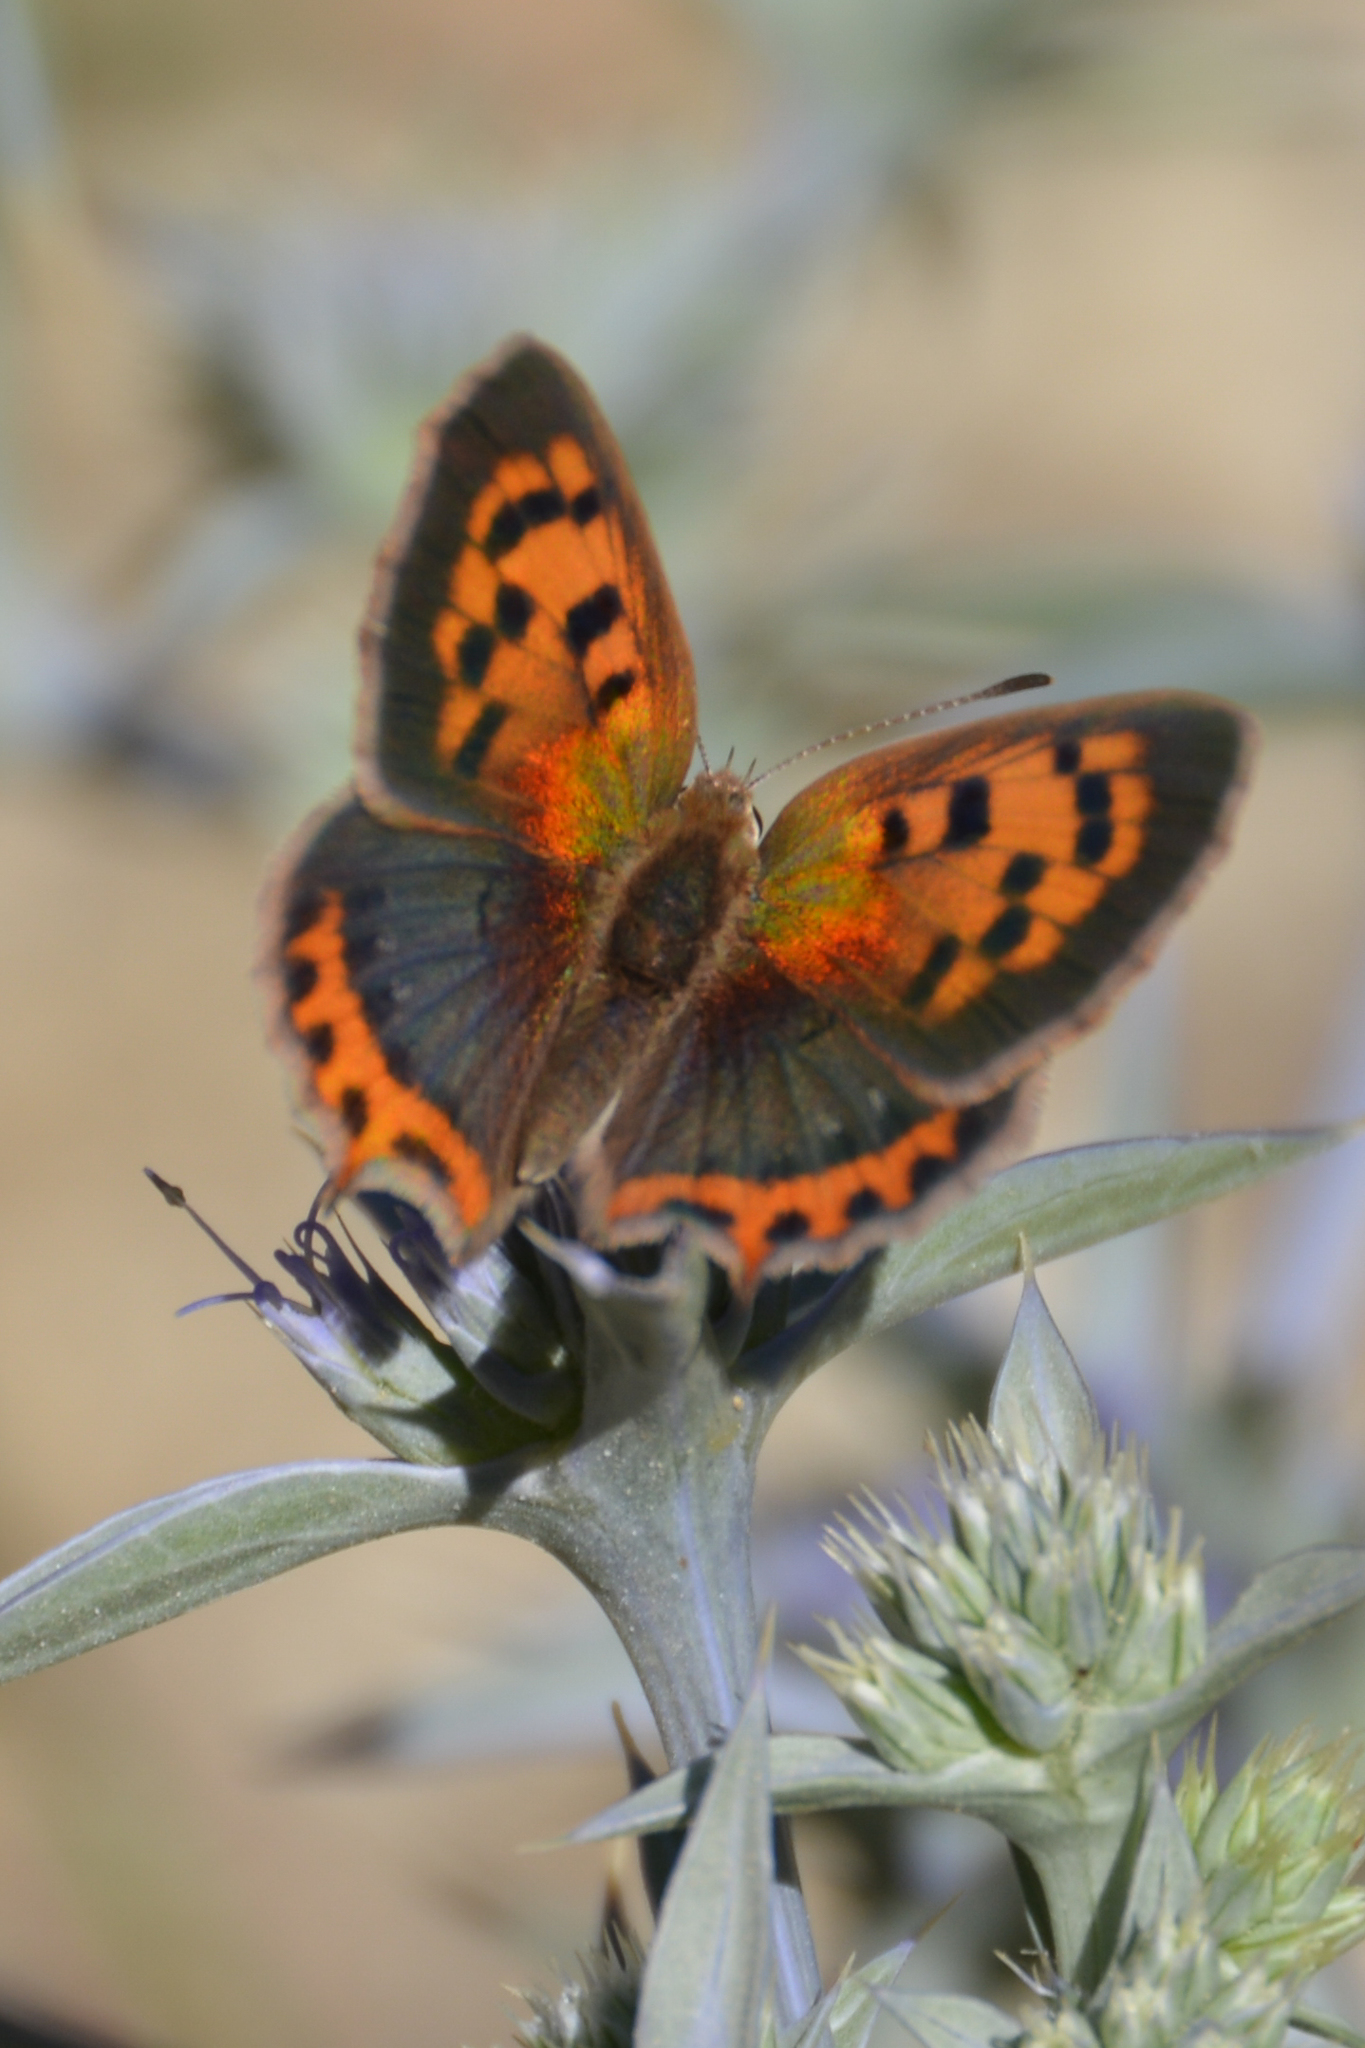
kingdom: Animalia
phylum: Arthropoda
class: Insecta
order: Lepidoptera
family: Lycaenidae
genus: Lycaena
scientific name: Lycaena phlaeas
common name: Small copper
